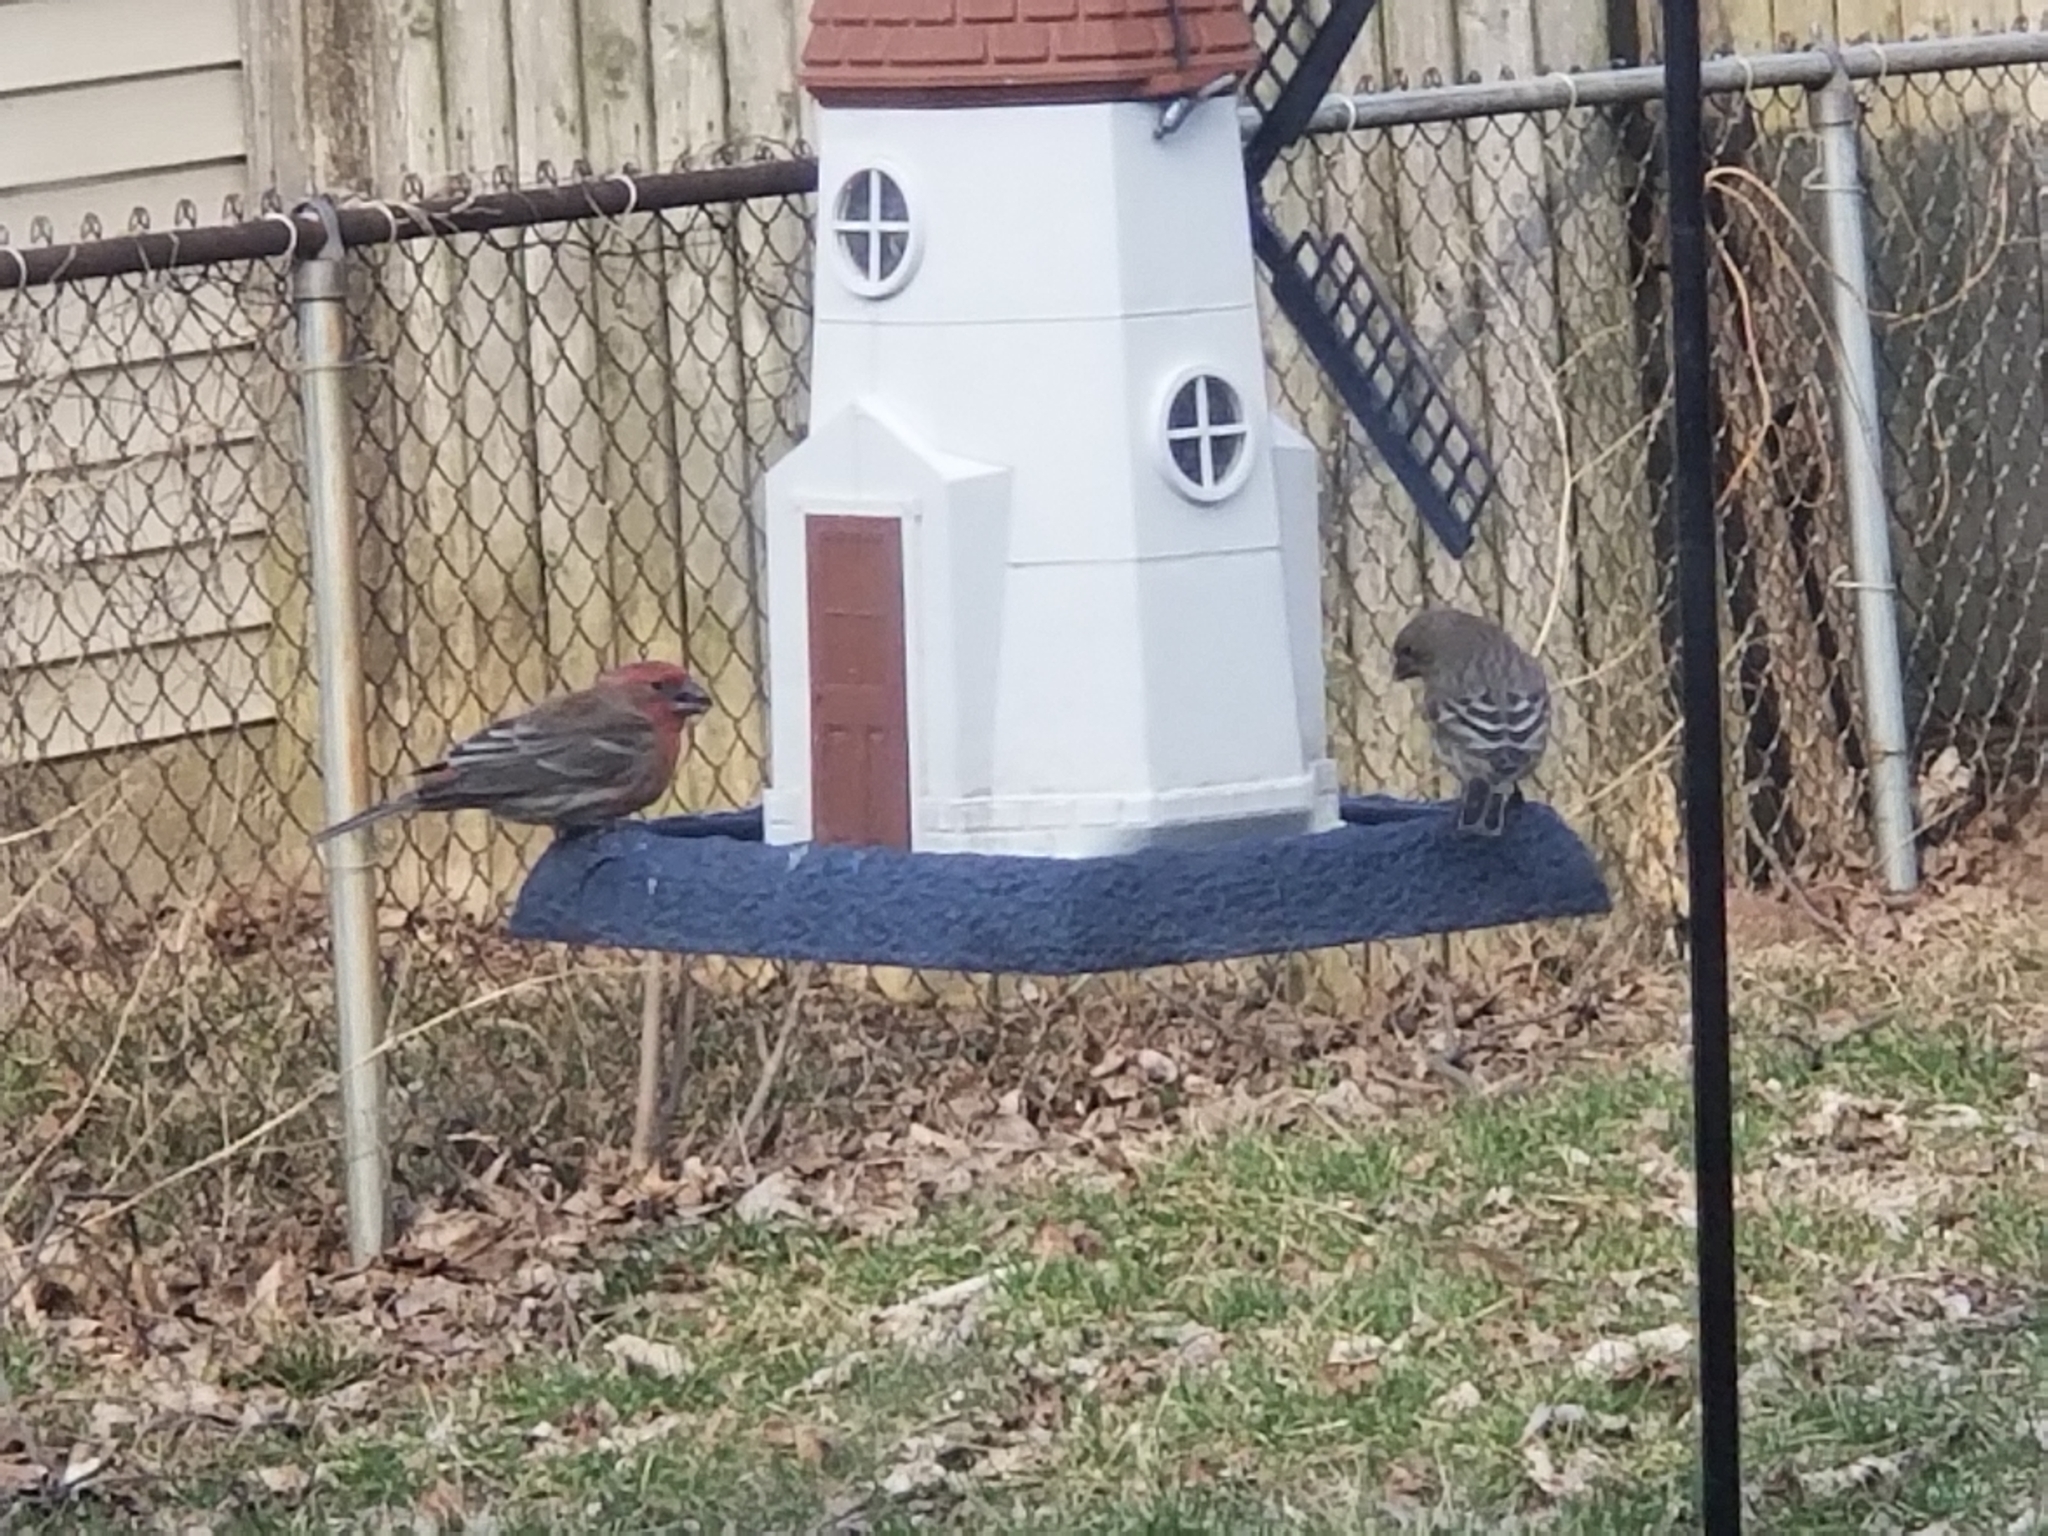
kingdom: Animalia
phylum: Chordata
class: Aves
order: Passeriformes
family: Fringillidae
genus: Haemorhous
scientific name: Haemorhous mexicanus
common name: House finch
